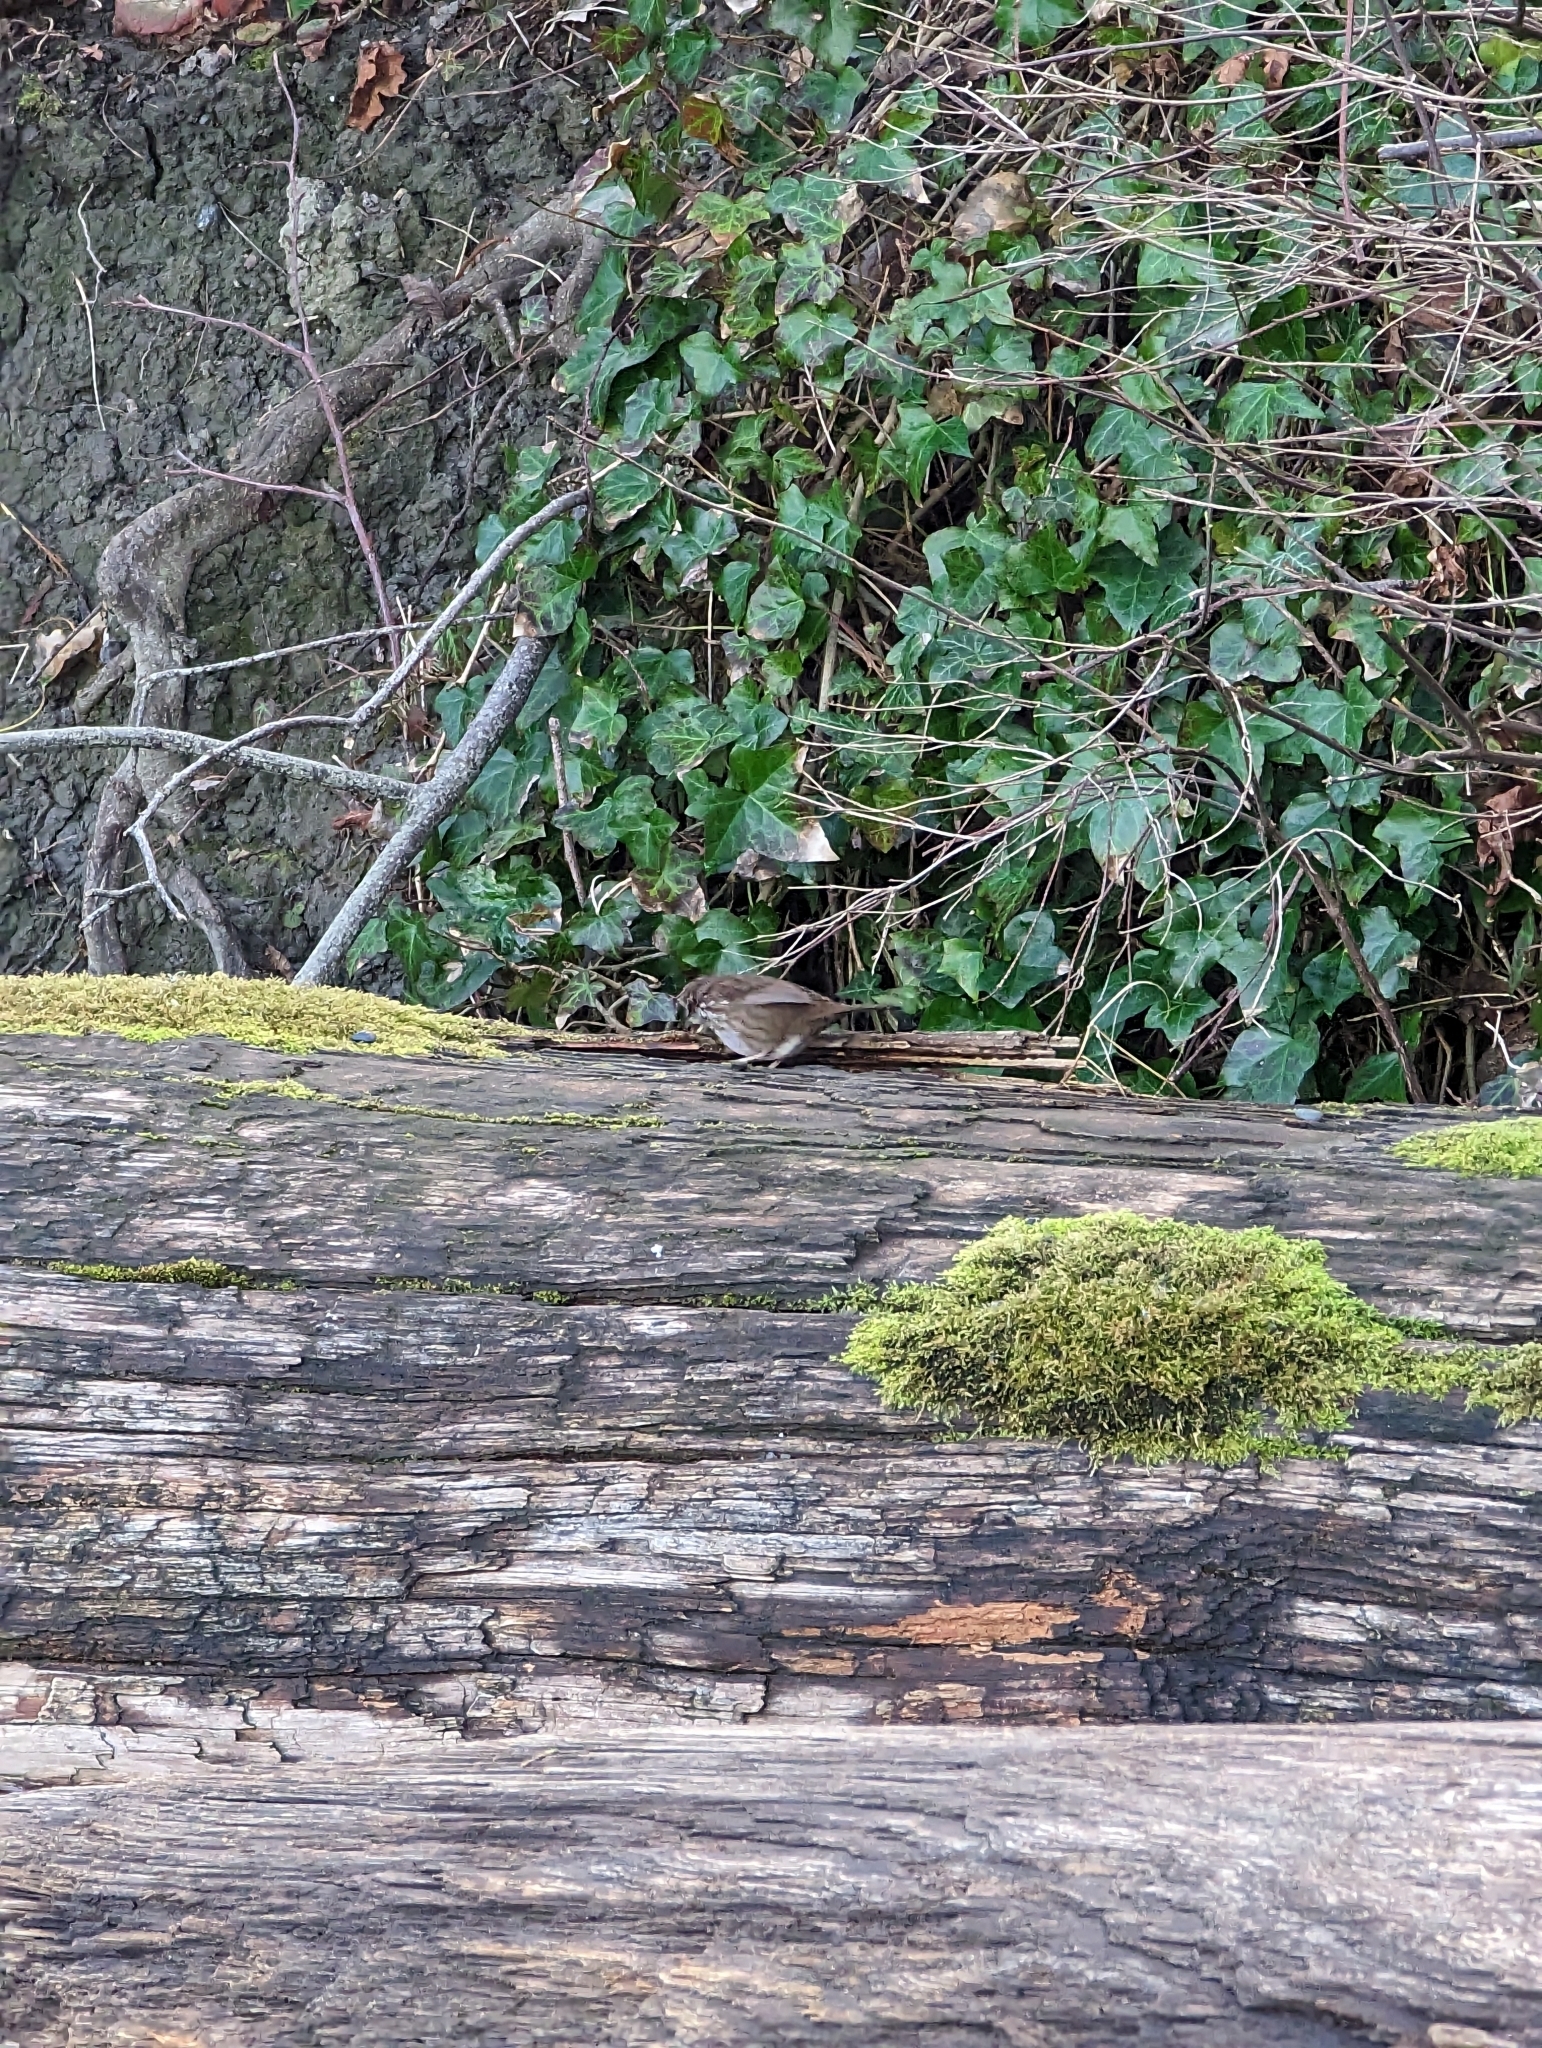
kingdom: Animalia
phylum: Chordata
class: Aves
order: Passeriformes
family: Passerellidae
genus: Melospiza
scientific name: Melospiza melodia
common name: Song sparrow
